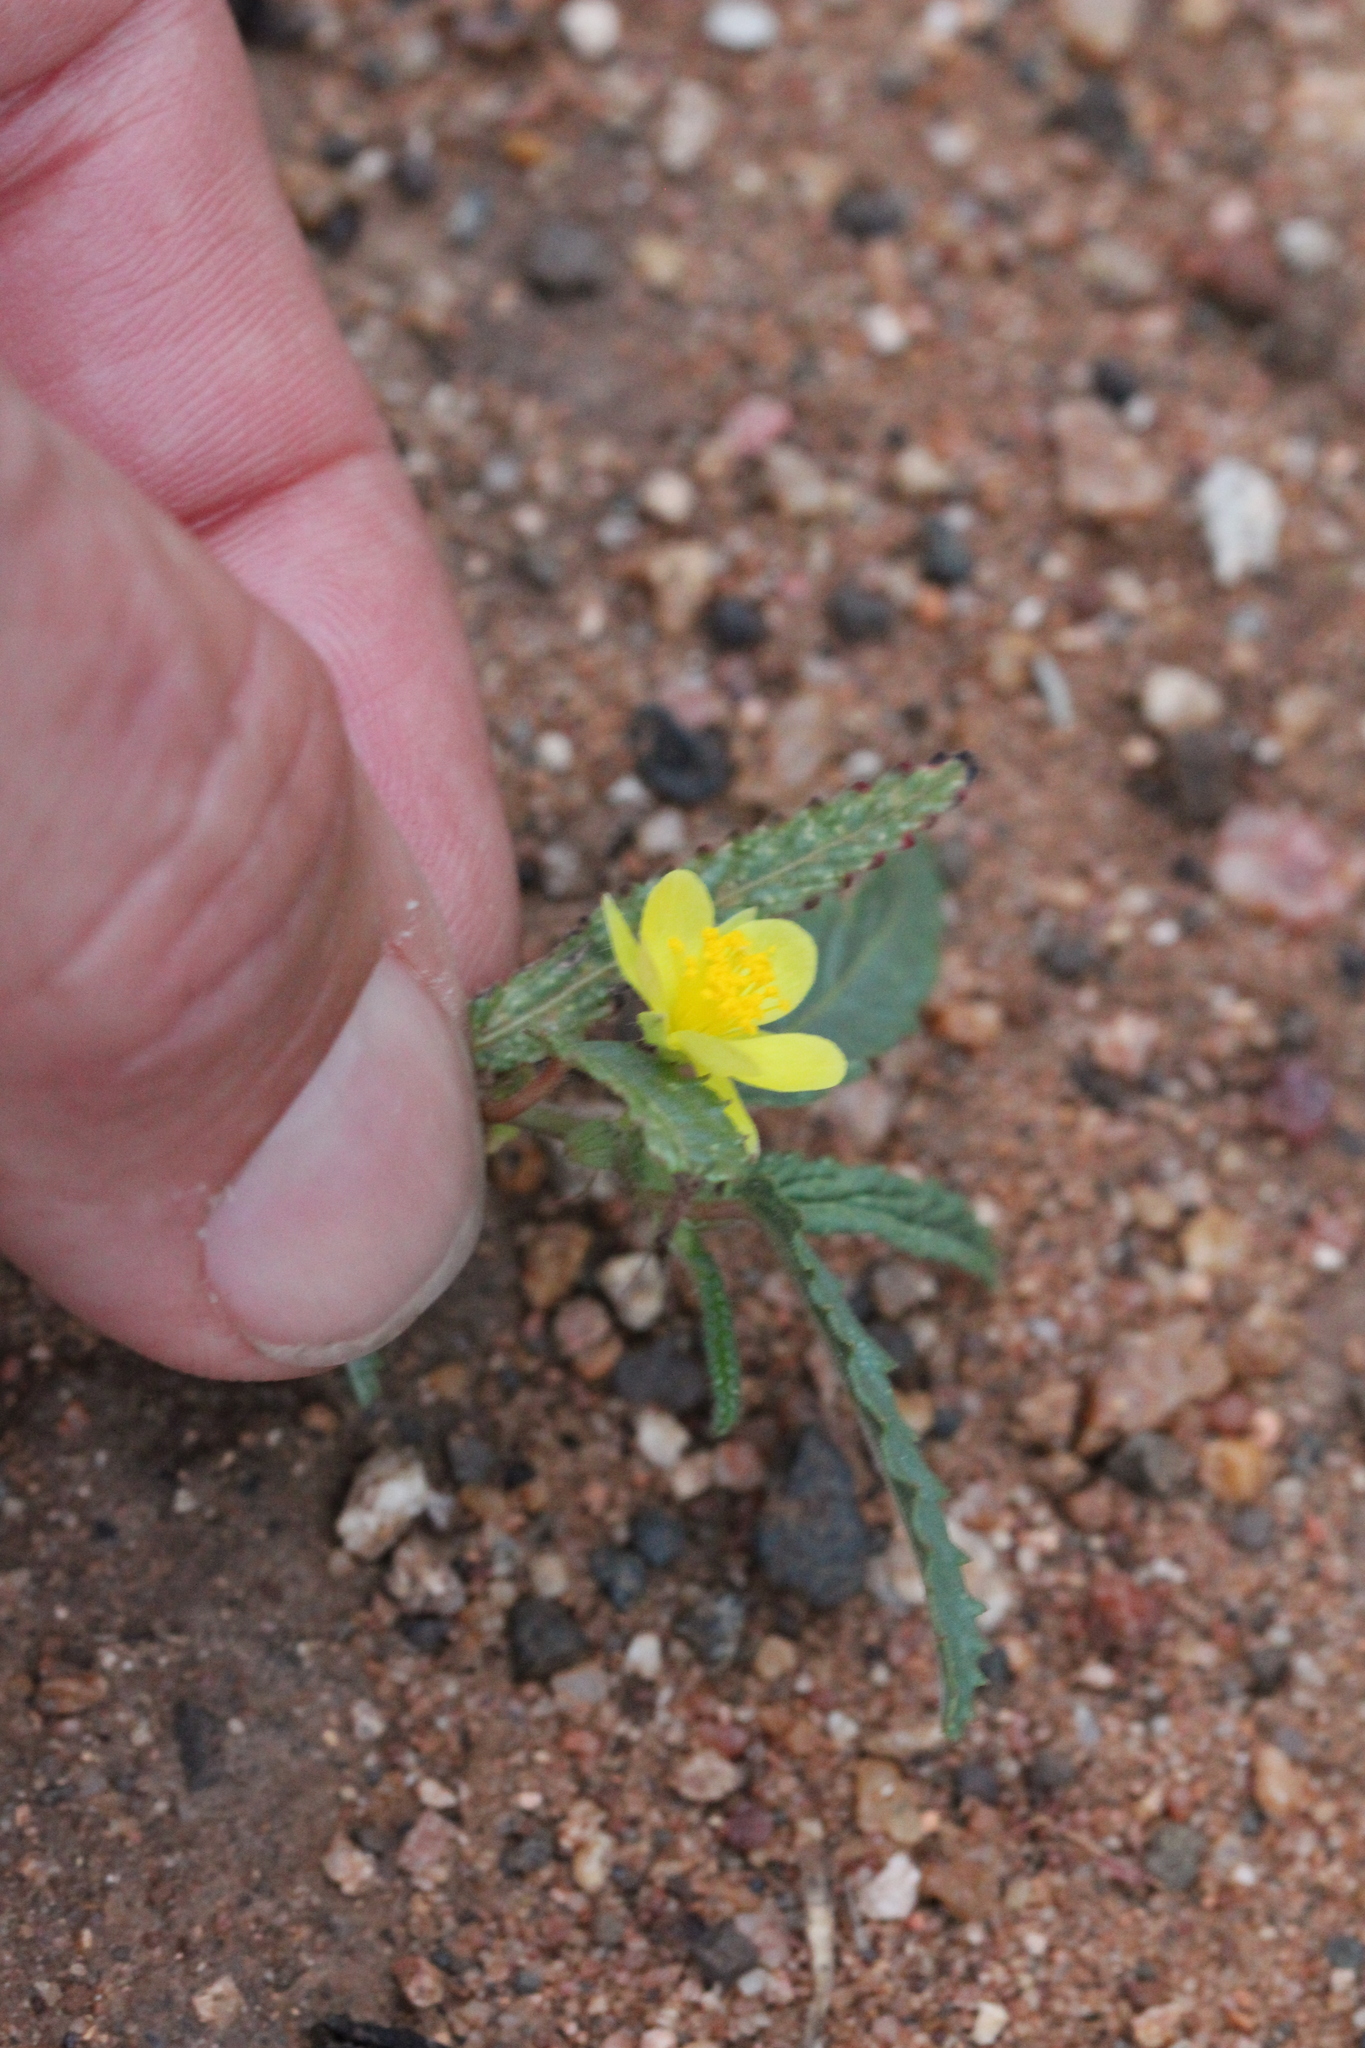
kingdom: Plantae
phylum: Tracheophyta
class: Magnoliopsida
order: Malvales
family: Malvaceae
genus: Corchorus
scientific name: Corchorus asplenifolius
